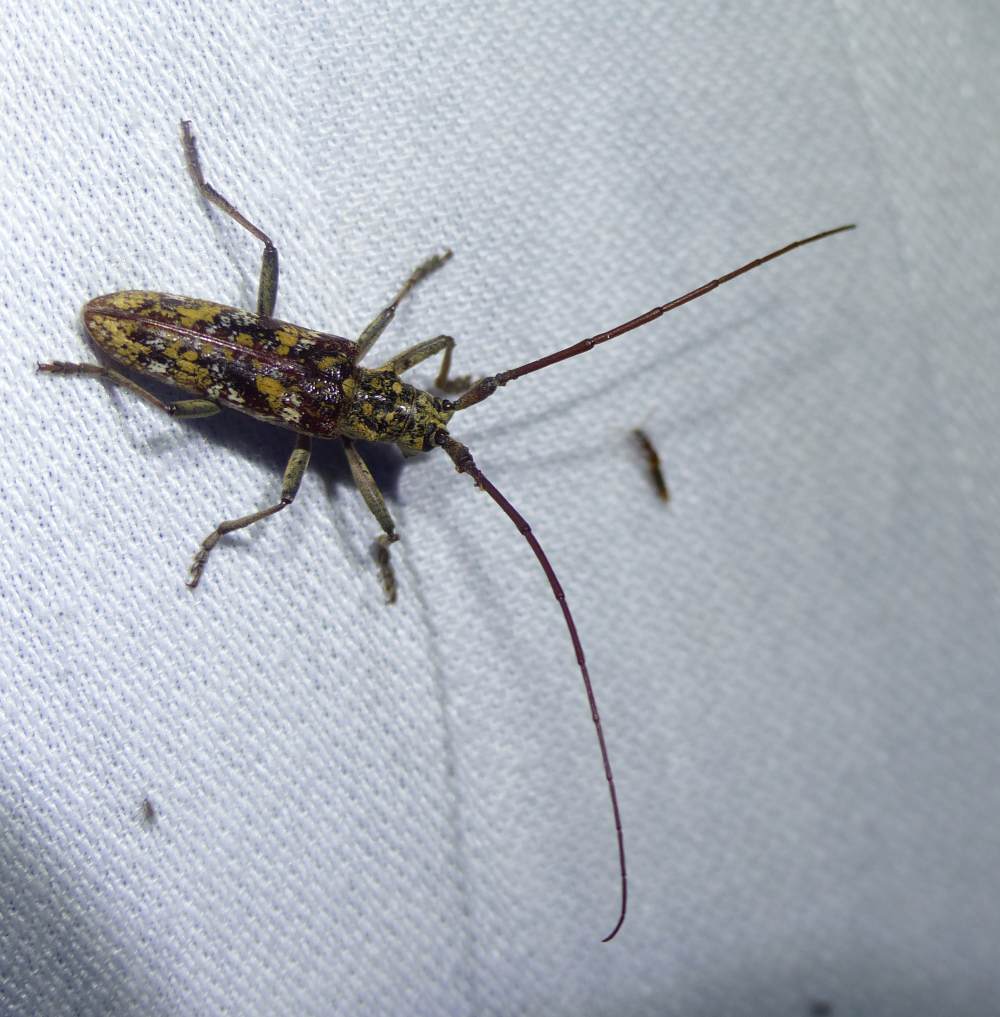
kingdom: Animalia
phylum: Arthropoda
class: Insecta
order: Coleoptera
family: Cerambycidae
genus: Monochamus
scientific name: Monochamus marmorator
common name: Balsam fir sawyer
